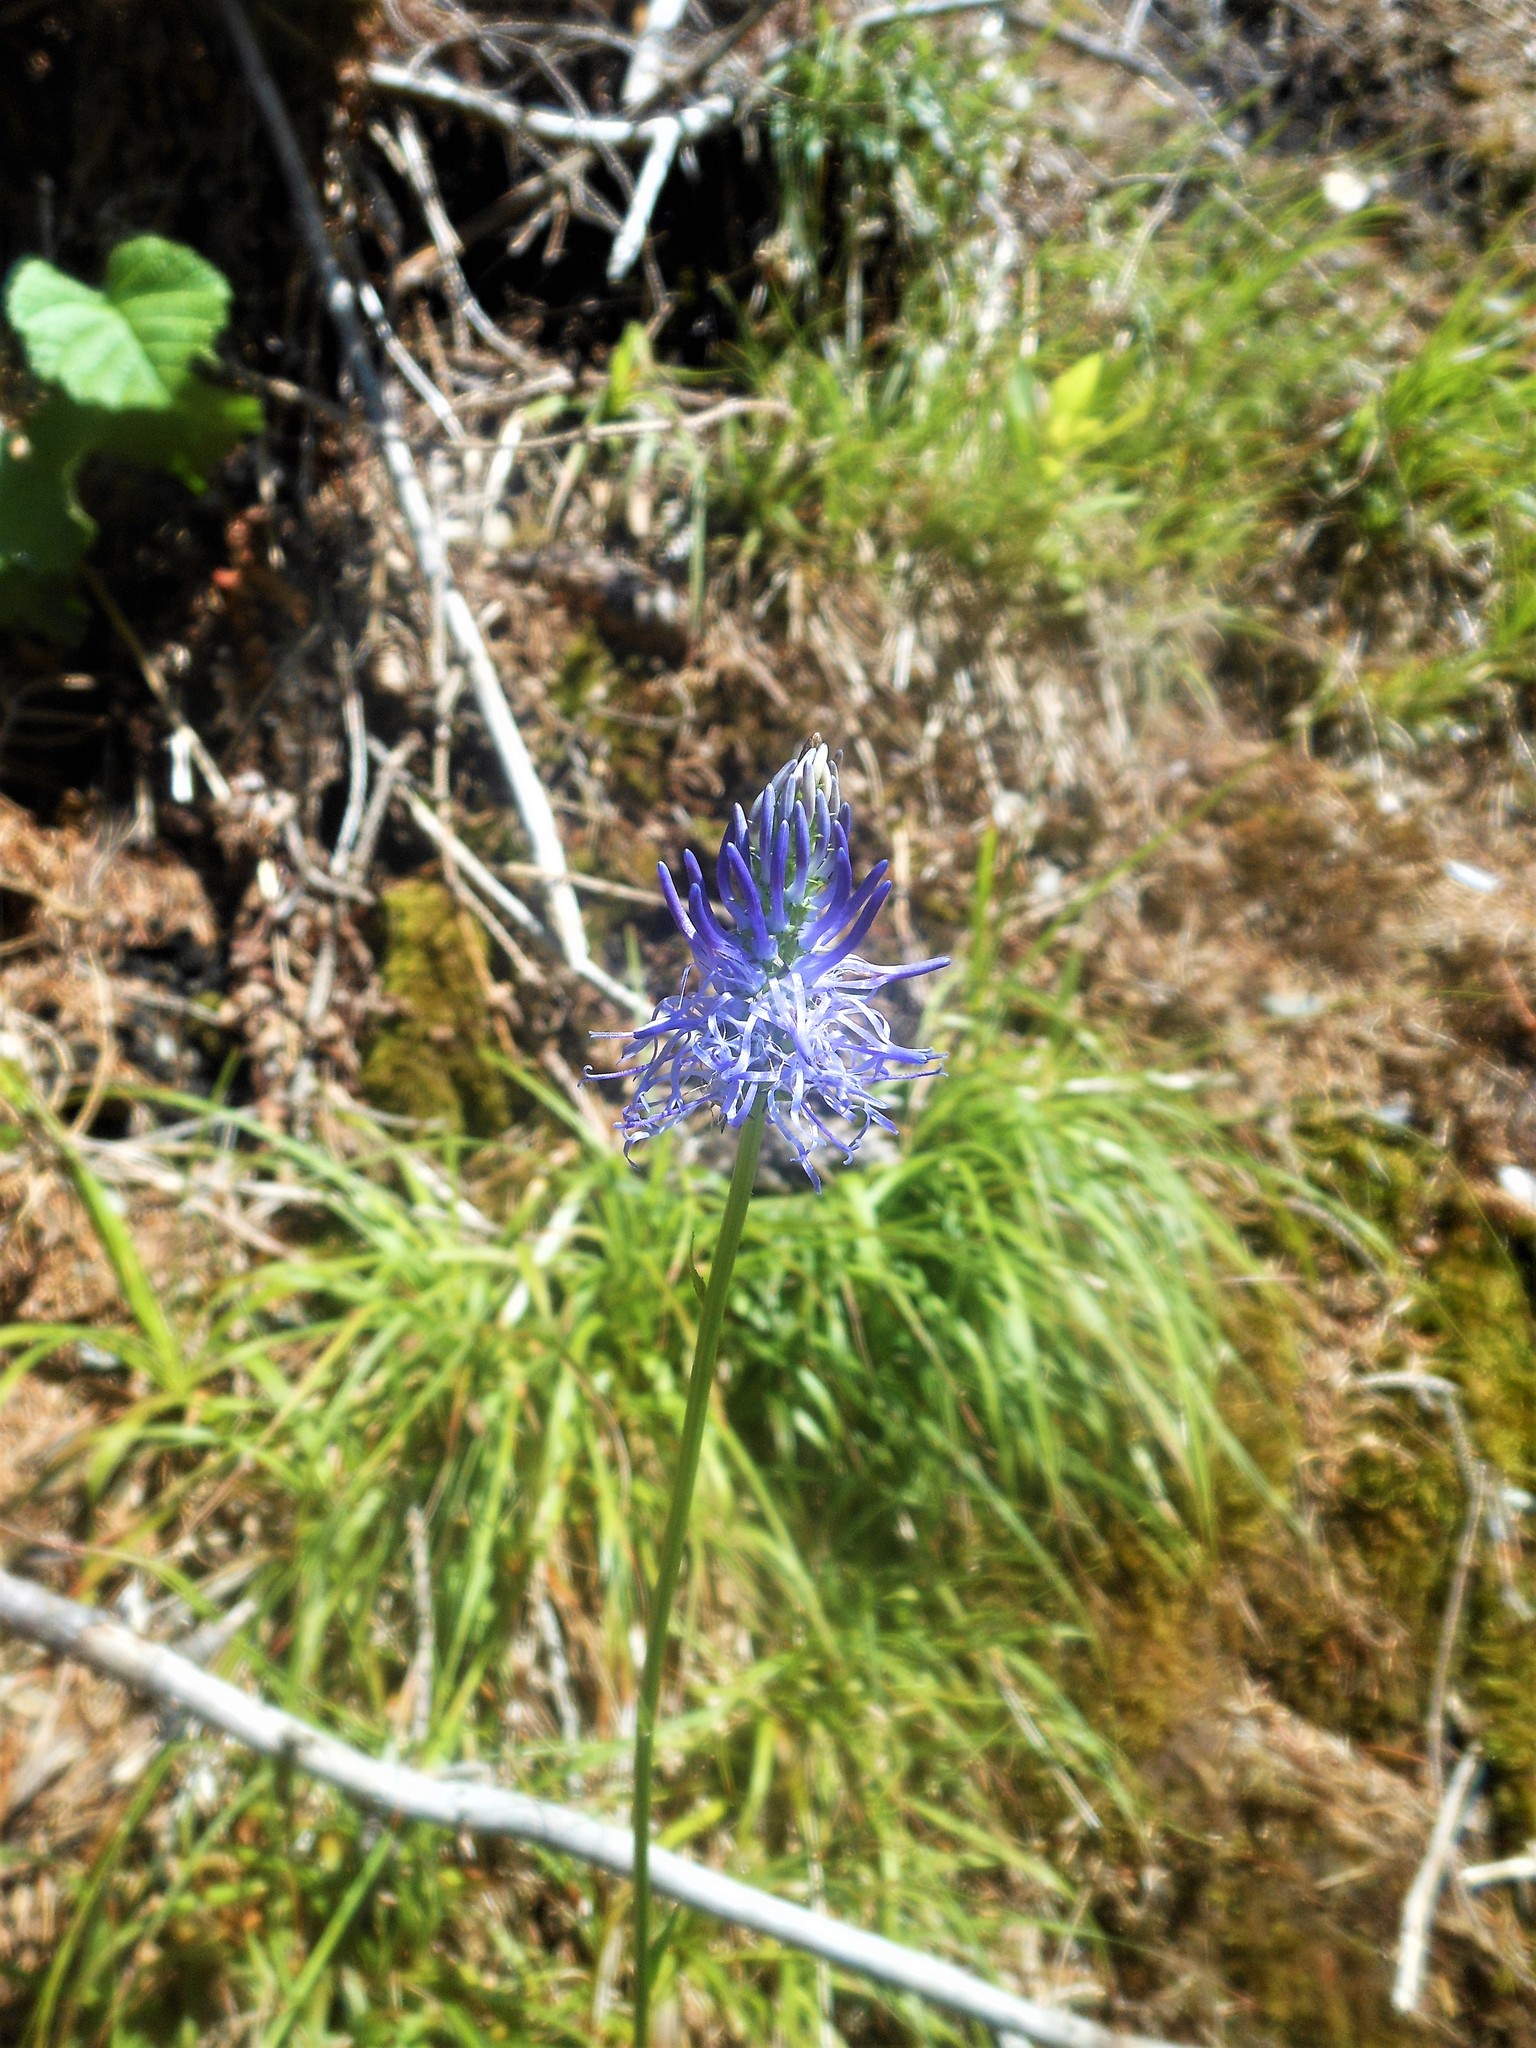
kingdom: Plantae
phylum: Tracheophyta
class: Magnoliopsida
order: Asterales
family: Campanulaceae
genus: Phyteuma
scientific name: Phyteuma persicifolium
